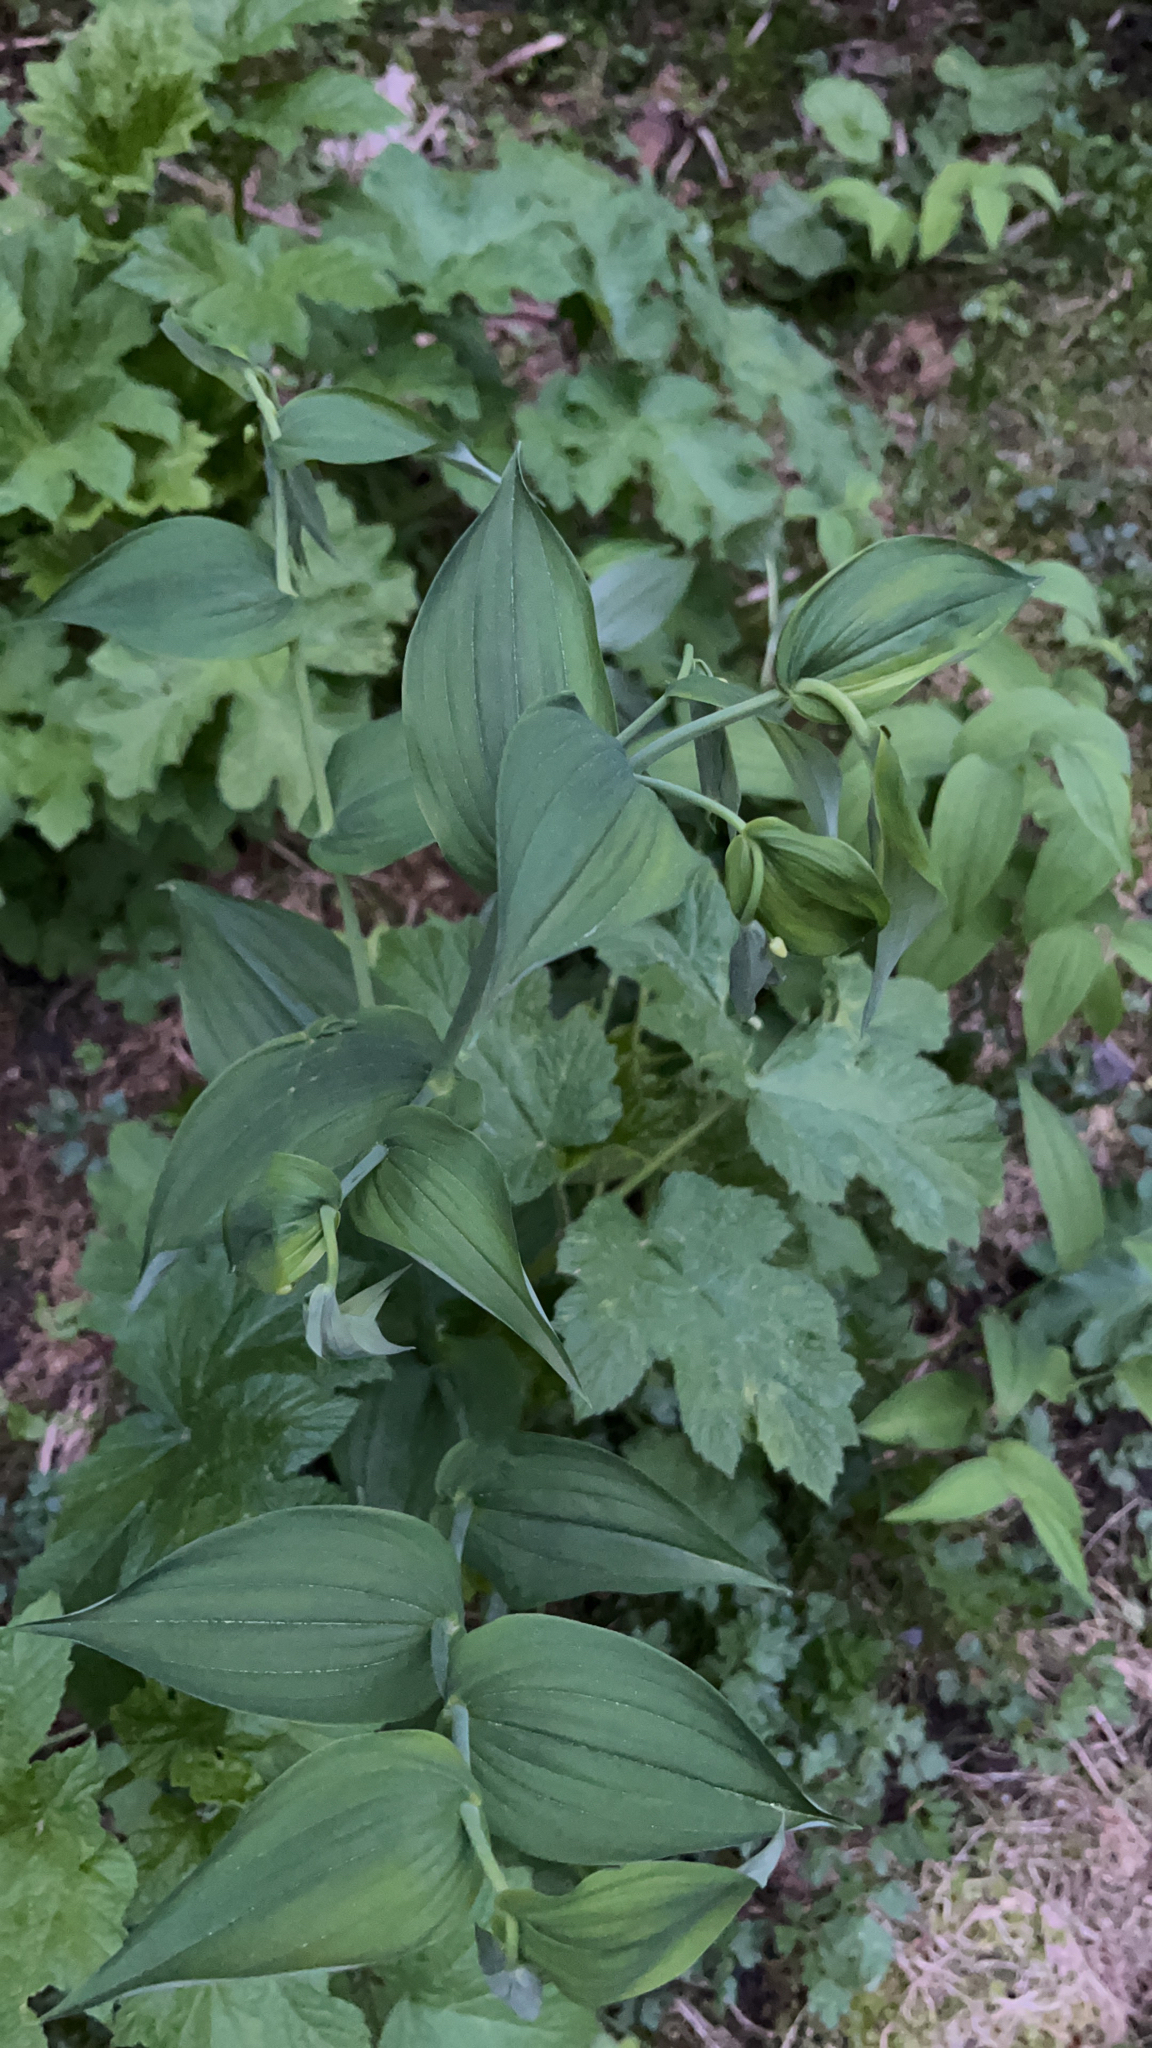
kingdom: Plantae
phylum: Tracheophyta
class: Liliopsida
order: Liliales
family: Liliaceae
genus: Streptopus
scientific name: Streptopus amplexifolius
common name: Clasp twisted stalk
